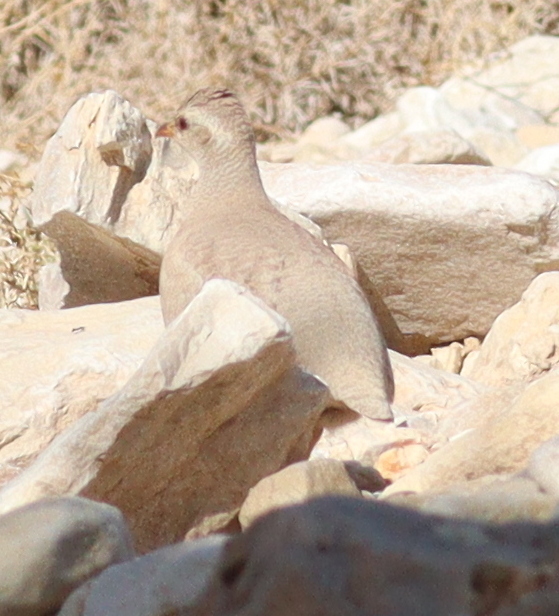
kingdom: Animalia
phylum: Chordata
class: Aves
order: Galliformes
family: Phasianidae
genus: Ammoperdix
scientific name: Ammoperdix heyi
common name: Sand partridge
